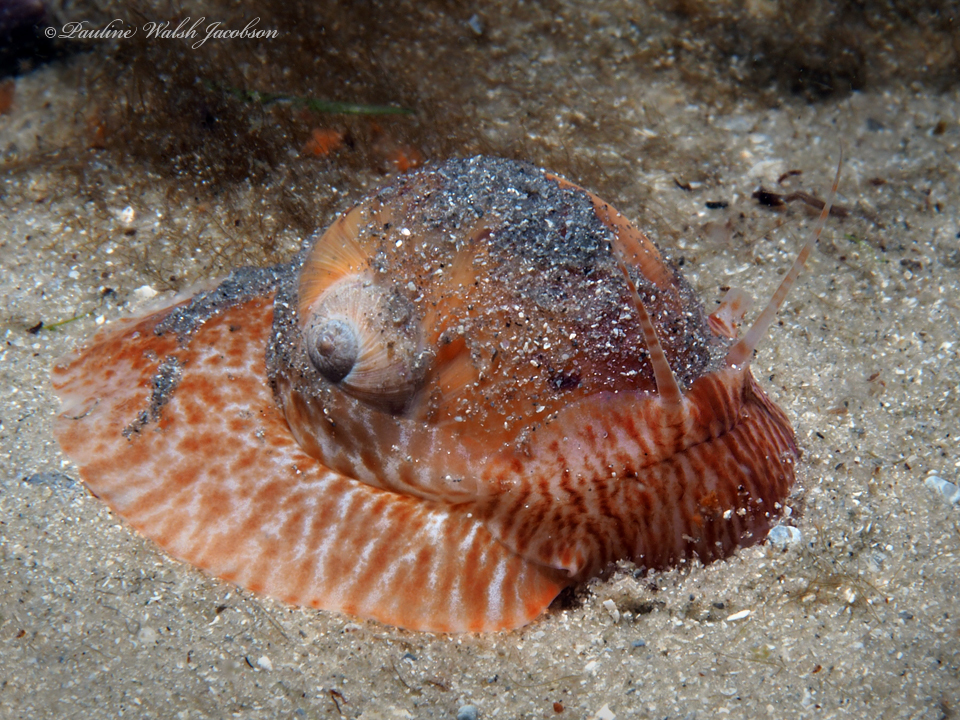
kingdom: Animalia
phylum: Mollusca
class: Gastropoda
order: Littorinimorpha
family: Naticidae
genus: Naticarius
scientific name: Naticarius canrena
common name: Colorful moonsnail
